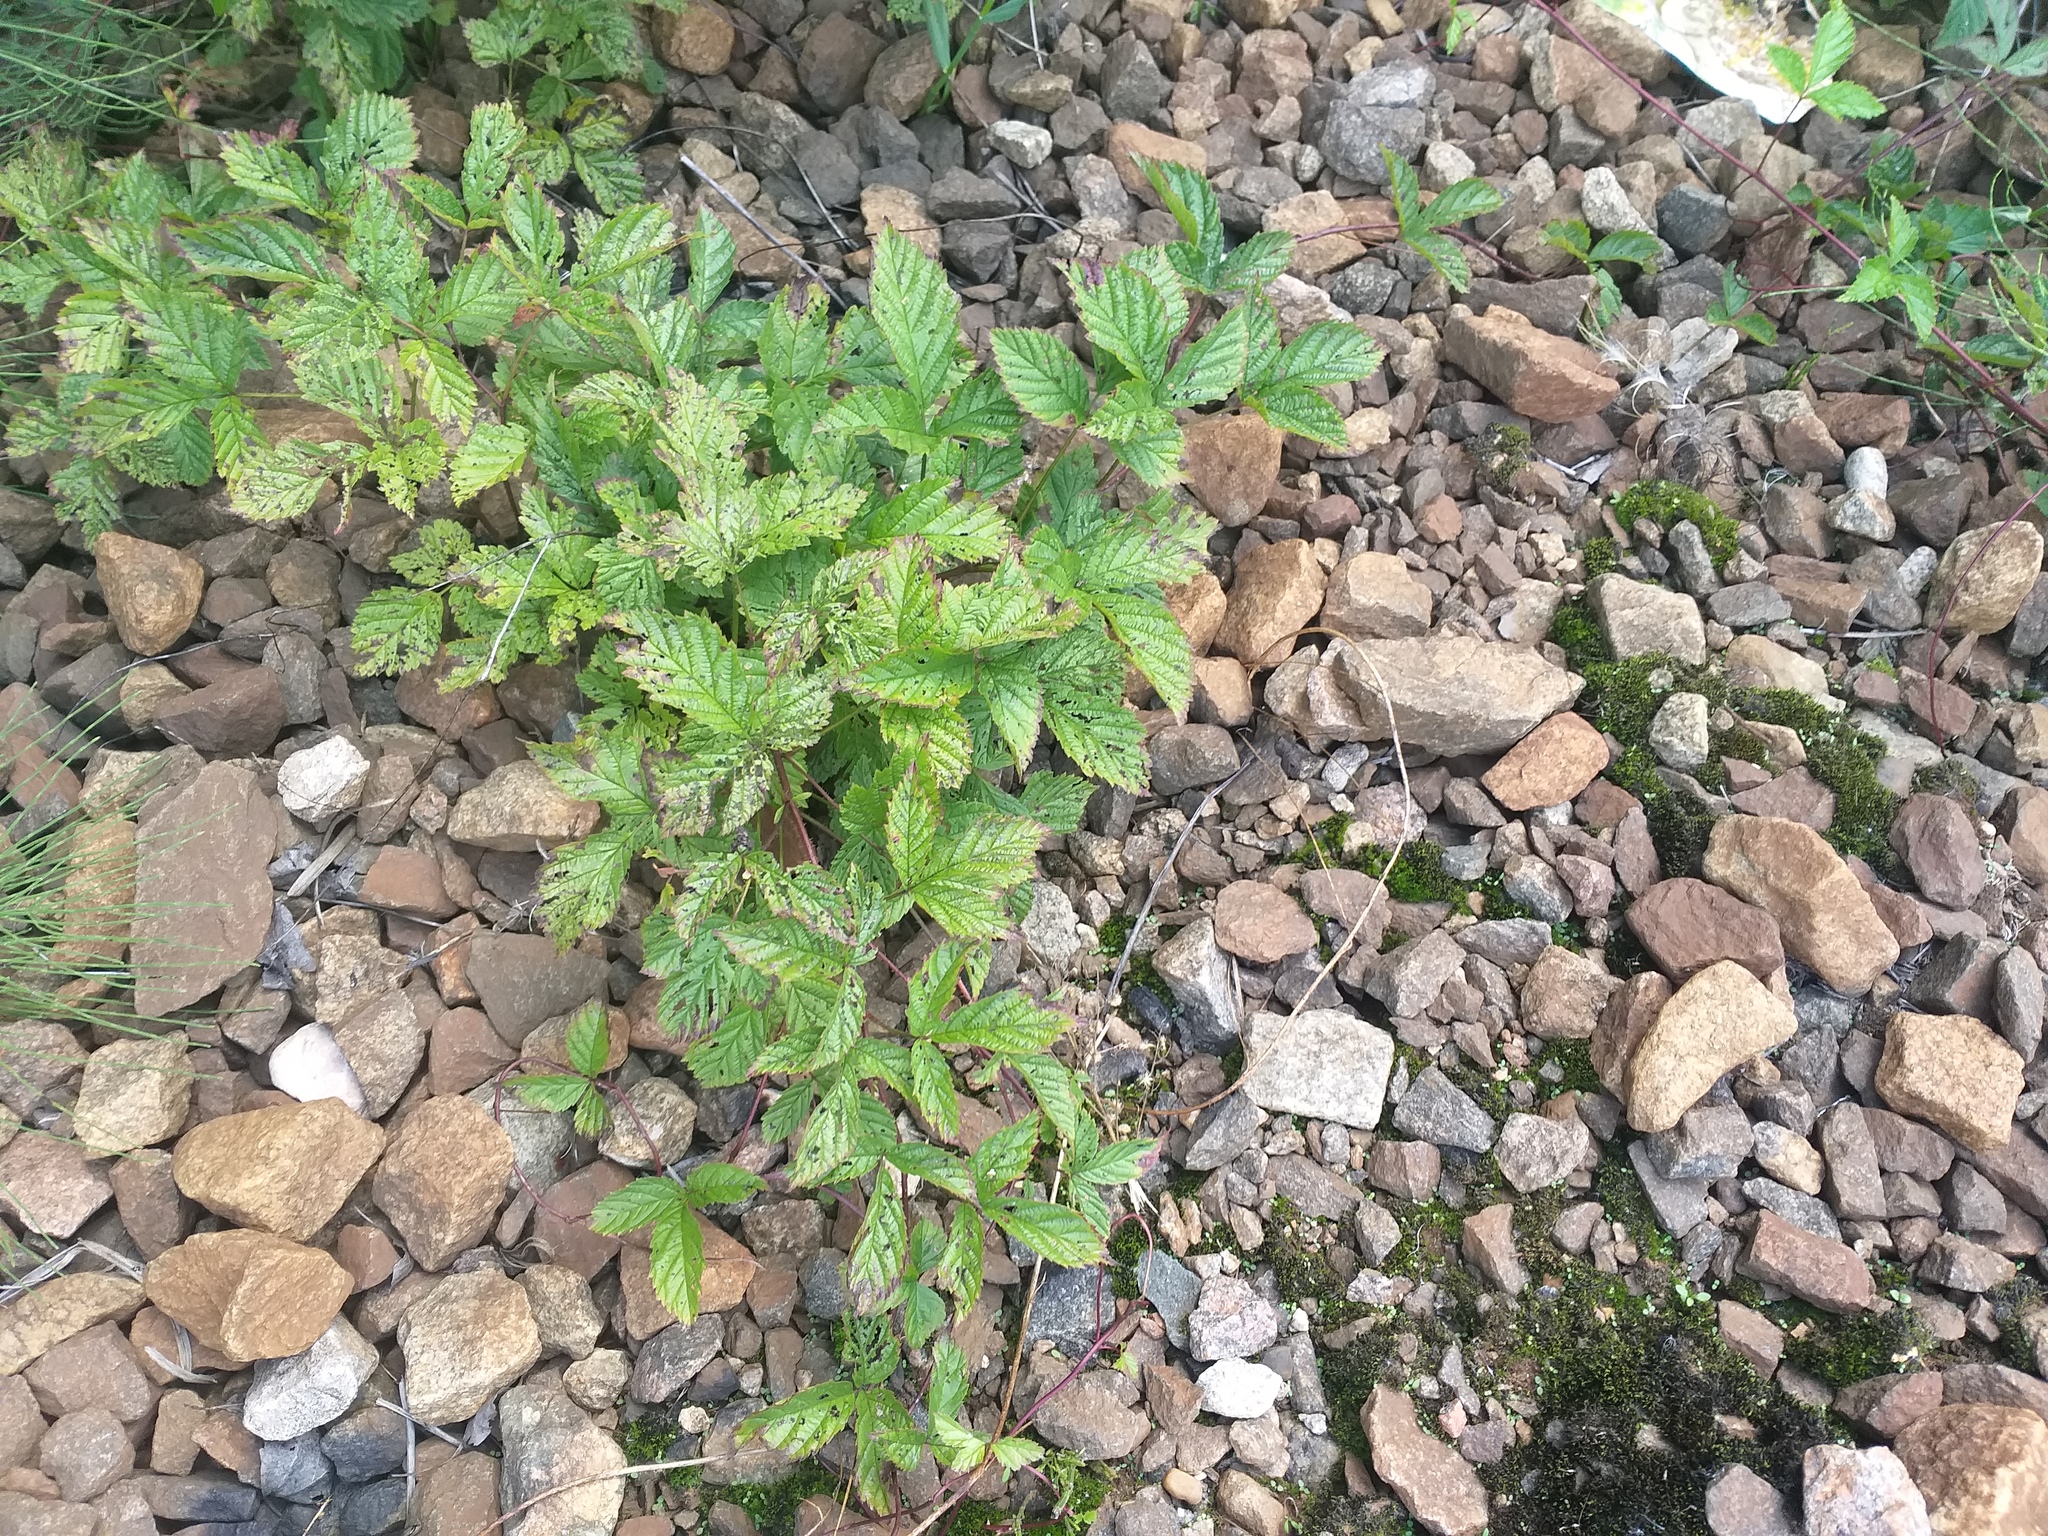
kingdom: Plantae
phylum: Tracheophyta
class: Magnoliopsida
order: Rosales
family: Rosaceae
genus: Rubus
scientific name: Rubus saxatilis
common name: Stone bramble
